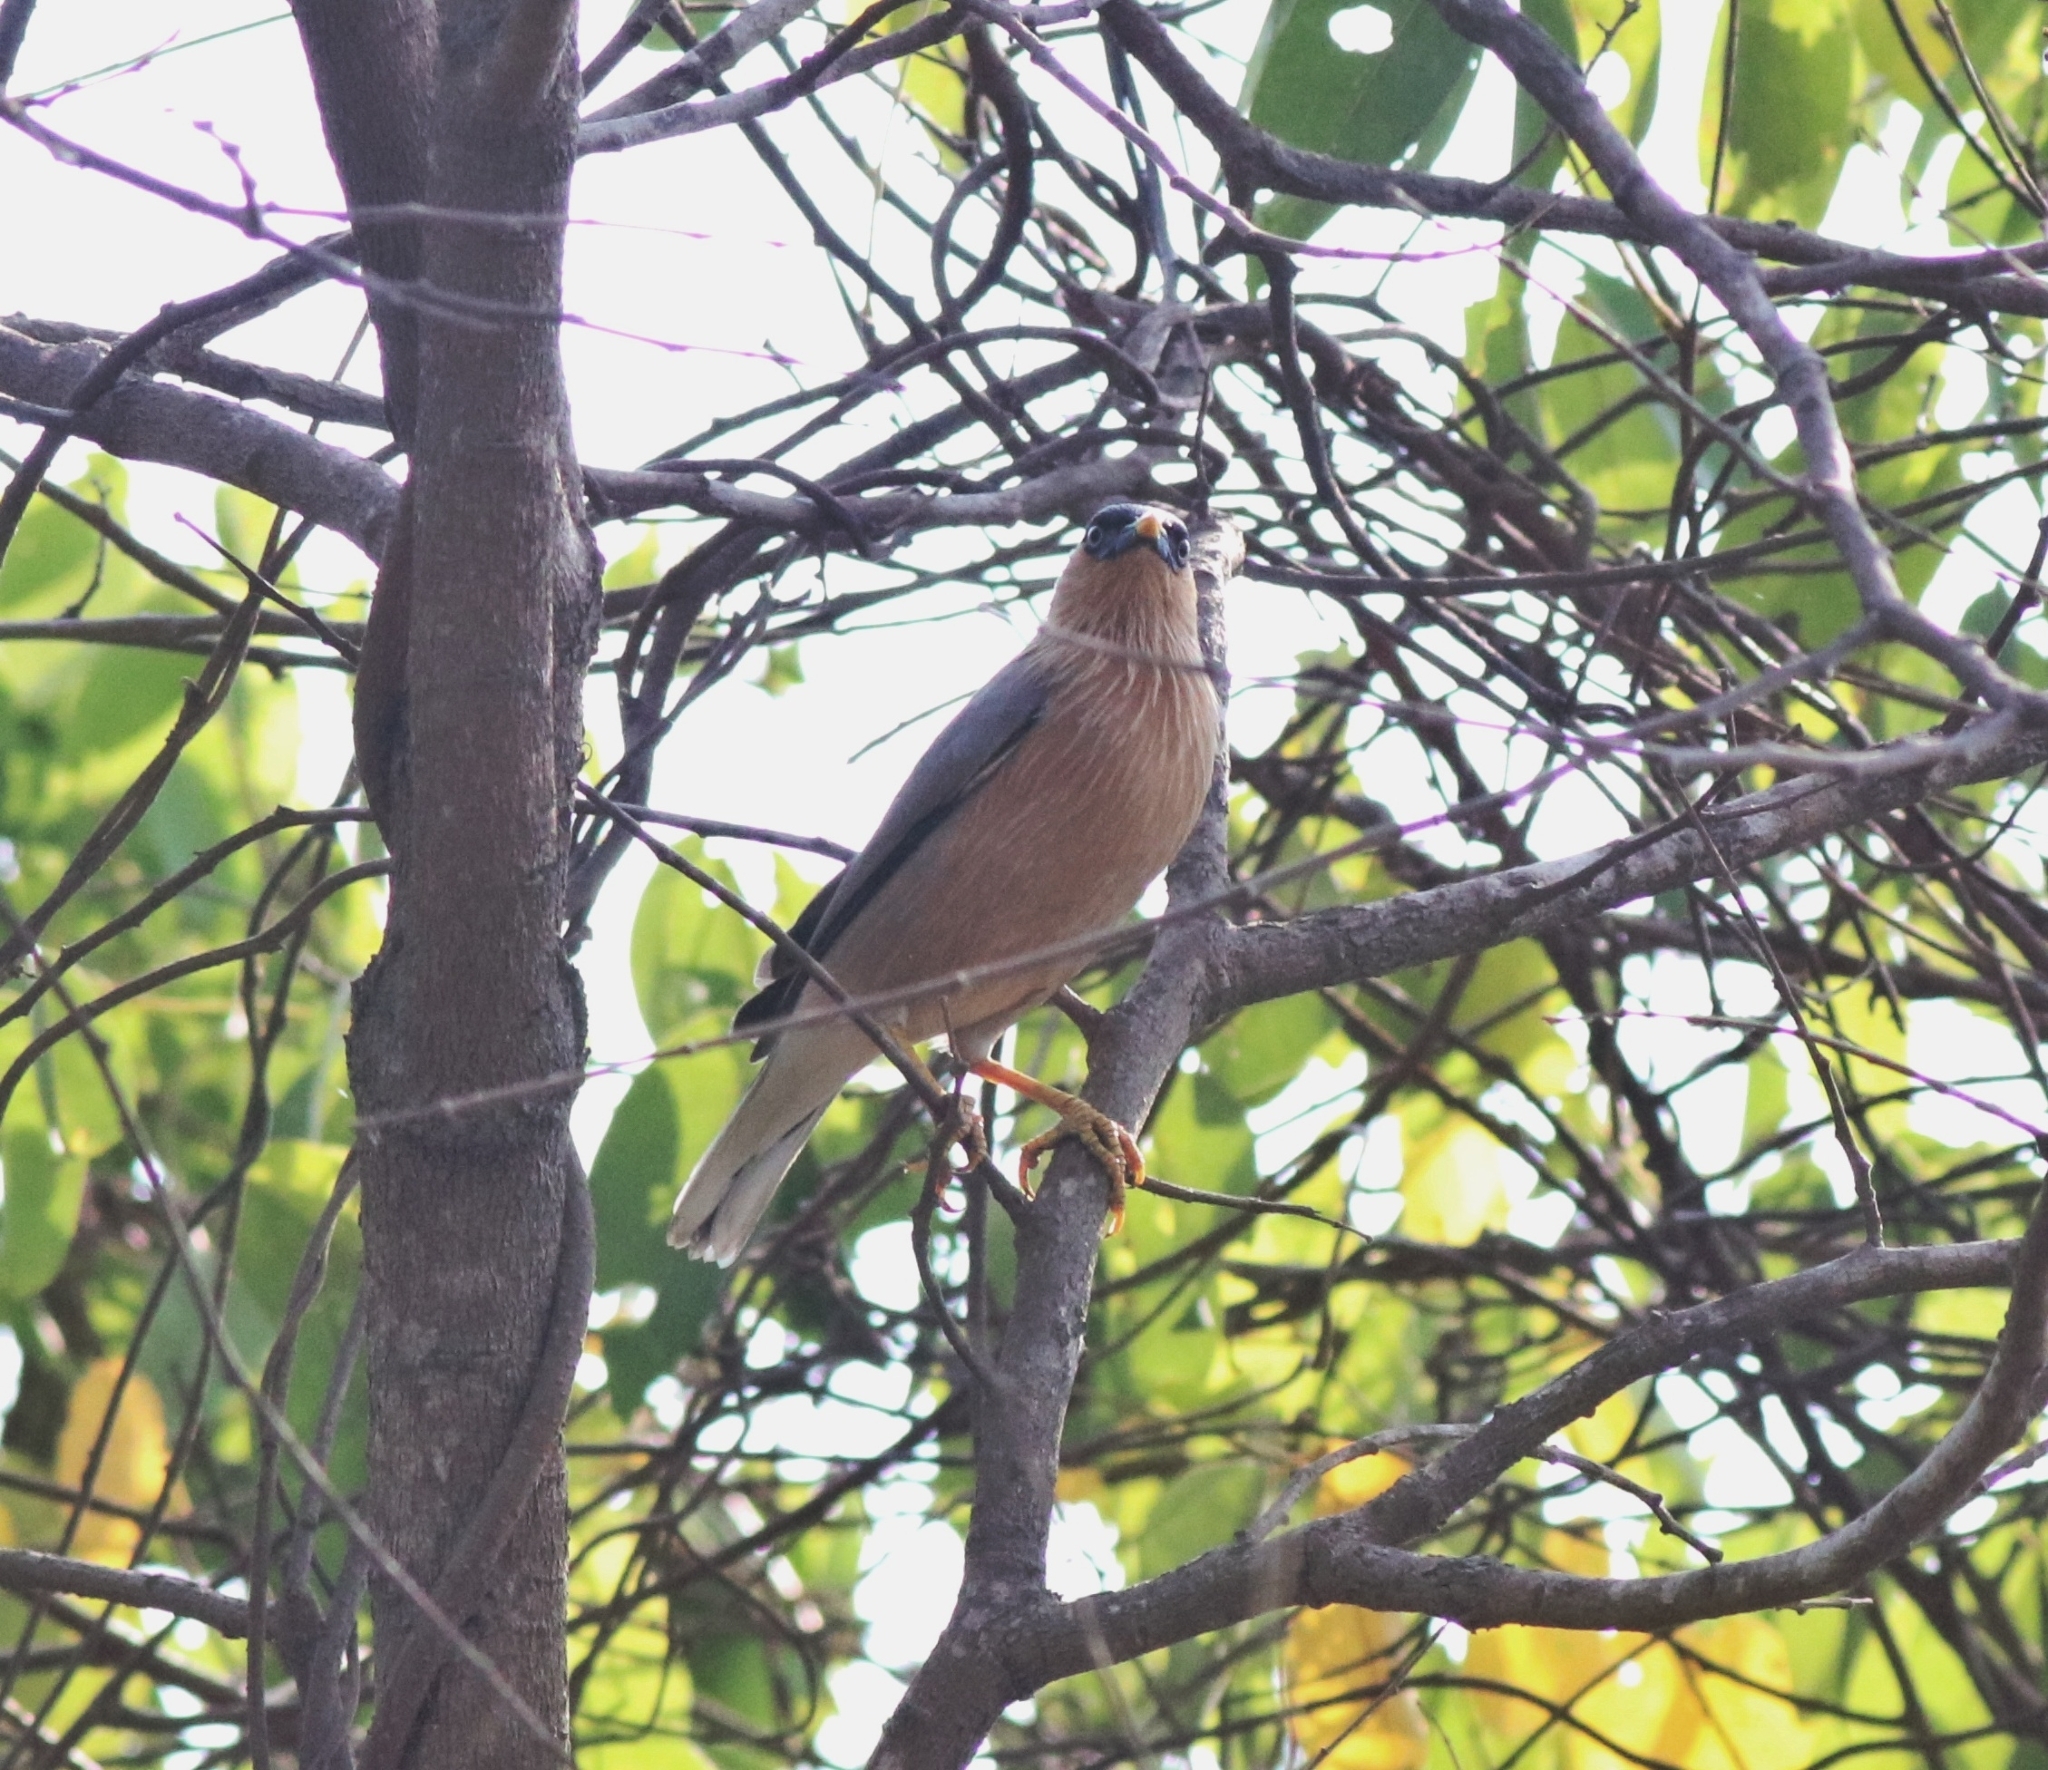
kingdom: Animalia
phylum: Chordata
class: Aves
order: Passeriformes
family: Sturnidae
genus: Sturnia
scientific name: Sturnia pagodarum
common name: Brahminy starling
